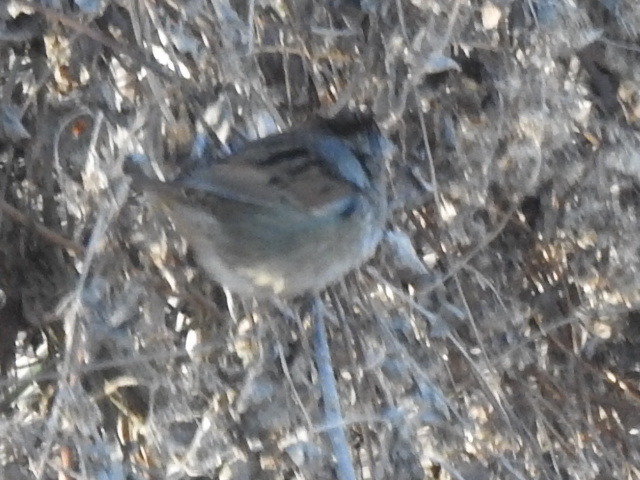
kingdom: Animalia
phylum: Chordata
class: Aves
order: Passeriformes
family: Passerellidae
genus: Melospiza
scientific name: Melospiza georgiana
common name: Swamp sparrow
